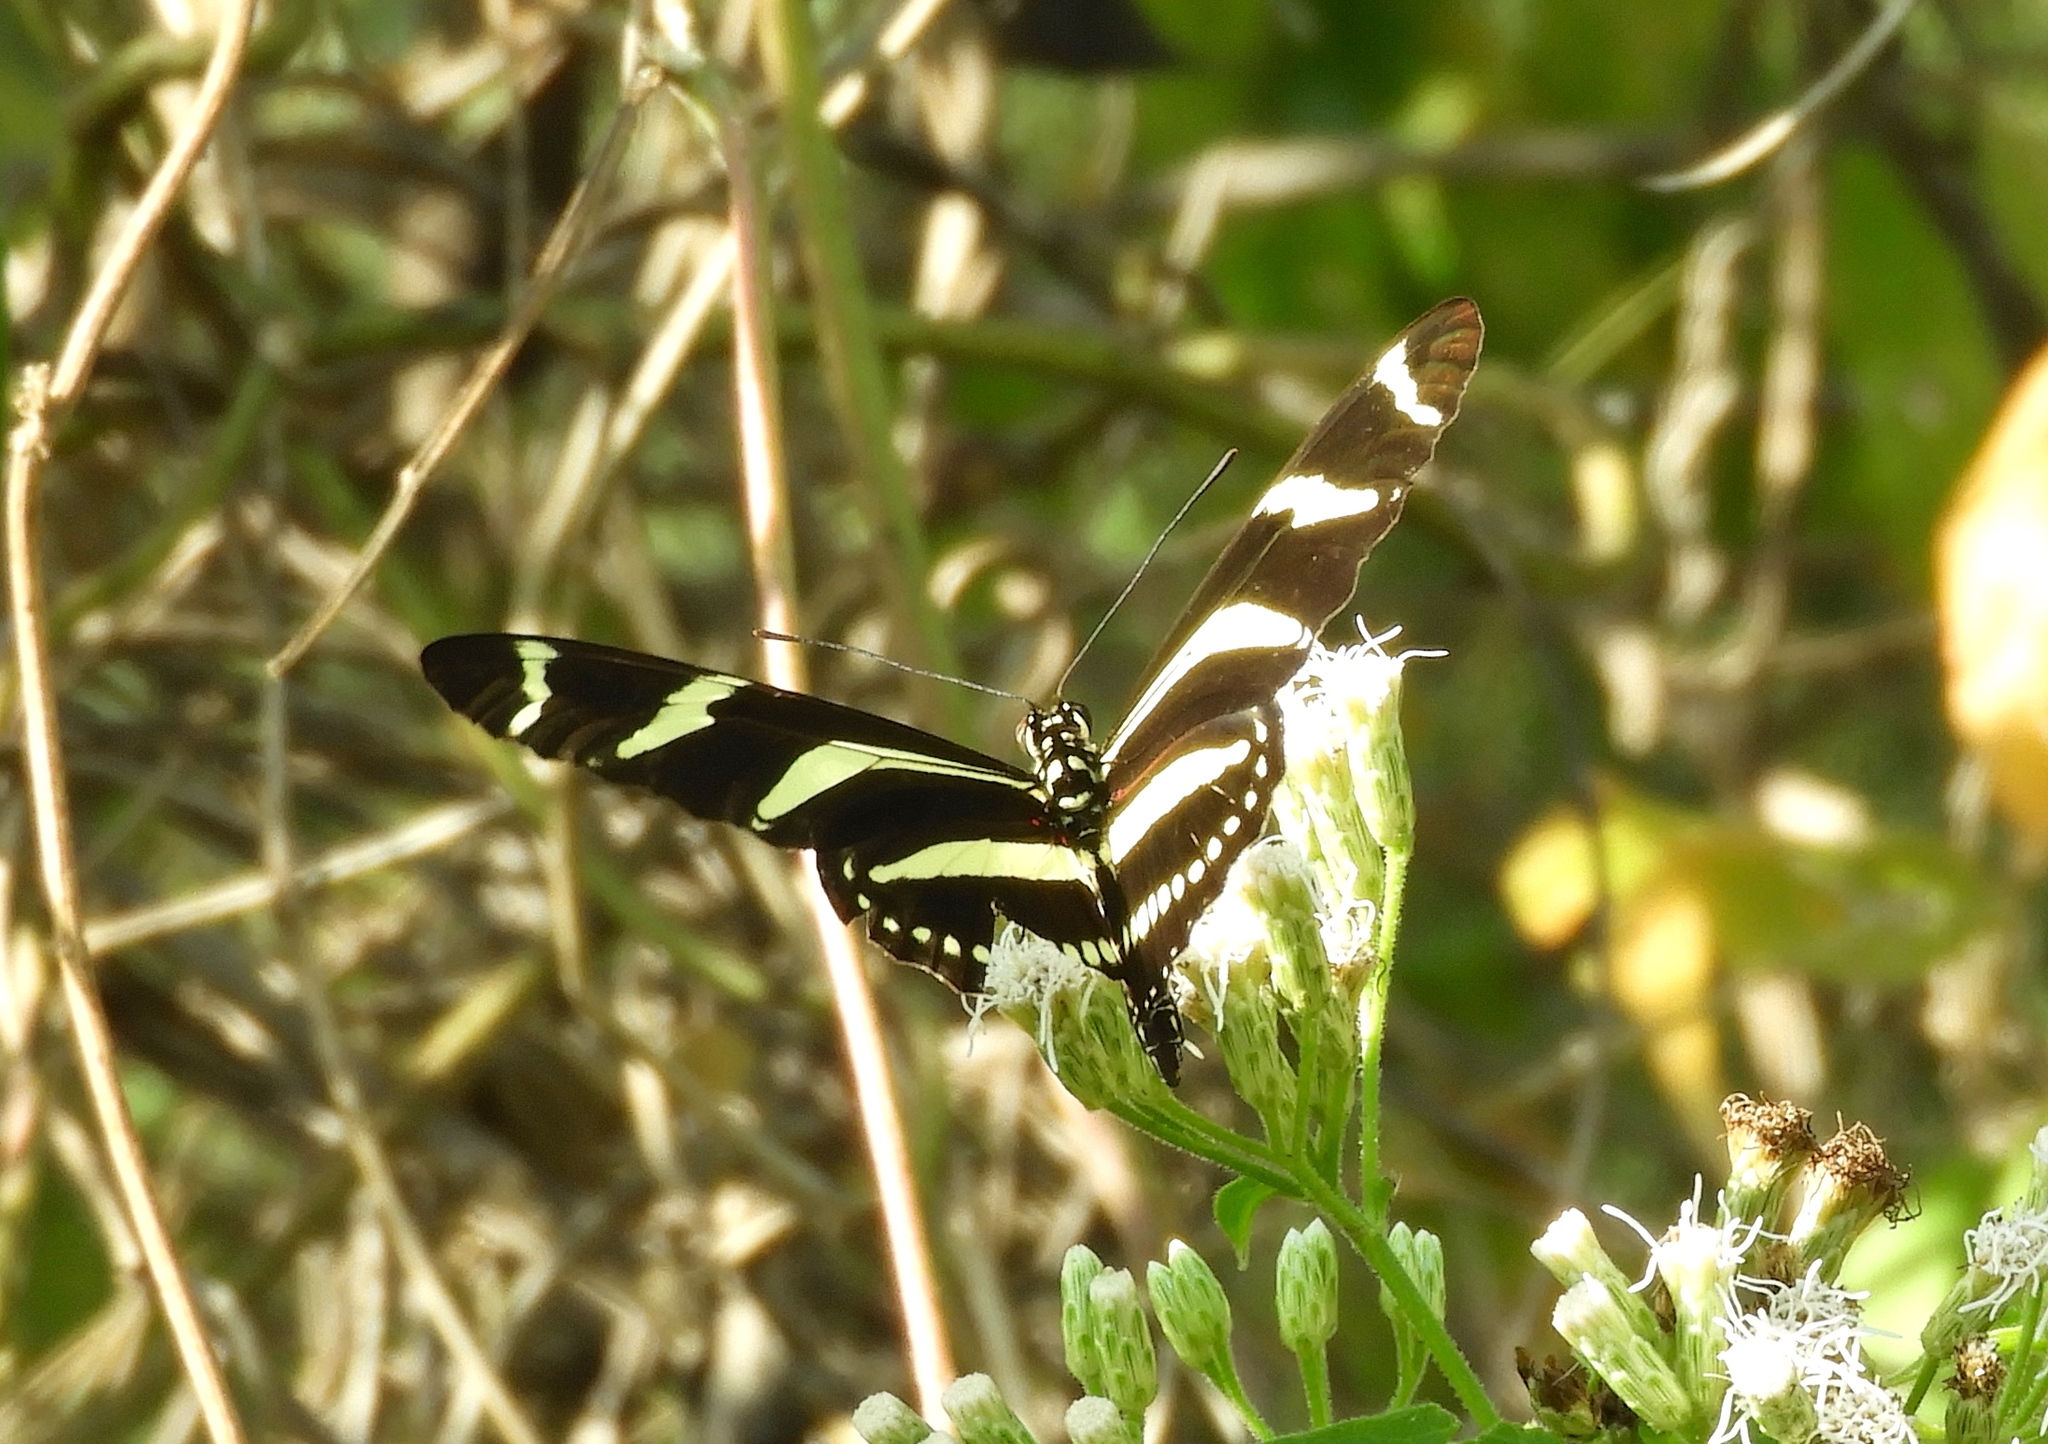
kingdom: Animalia
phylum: Arthropoda
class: Insecta
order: Lepidoptera
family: Nymphalidae
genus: Heliconius
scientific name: Heliconius charithonia
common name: Zebra long wing
